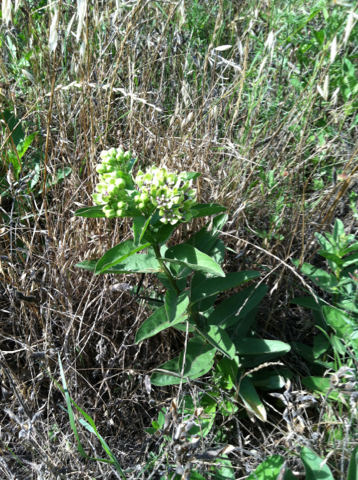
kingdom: Plantae
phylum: Tracheophyta
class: Magnoliopsida
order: Gentianales
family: Apocynaceae
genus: Asclepias
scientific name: Asclepias viridis
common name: Antelope-horns
